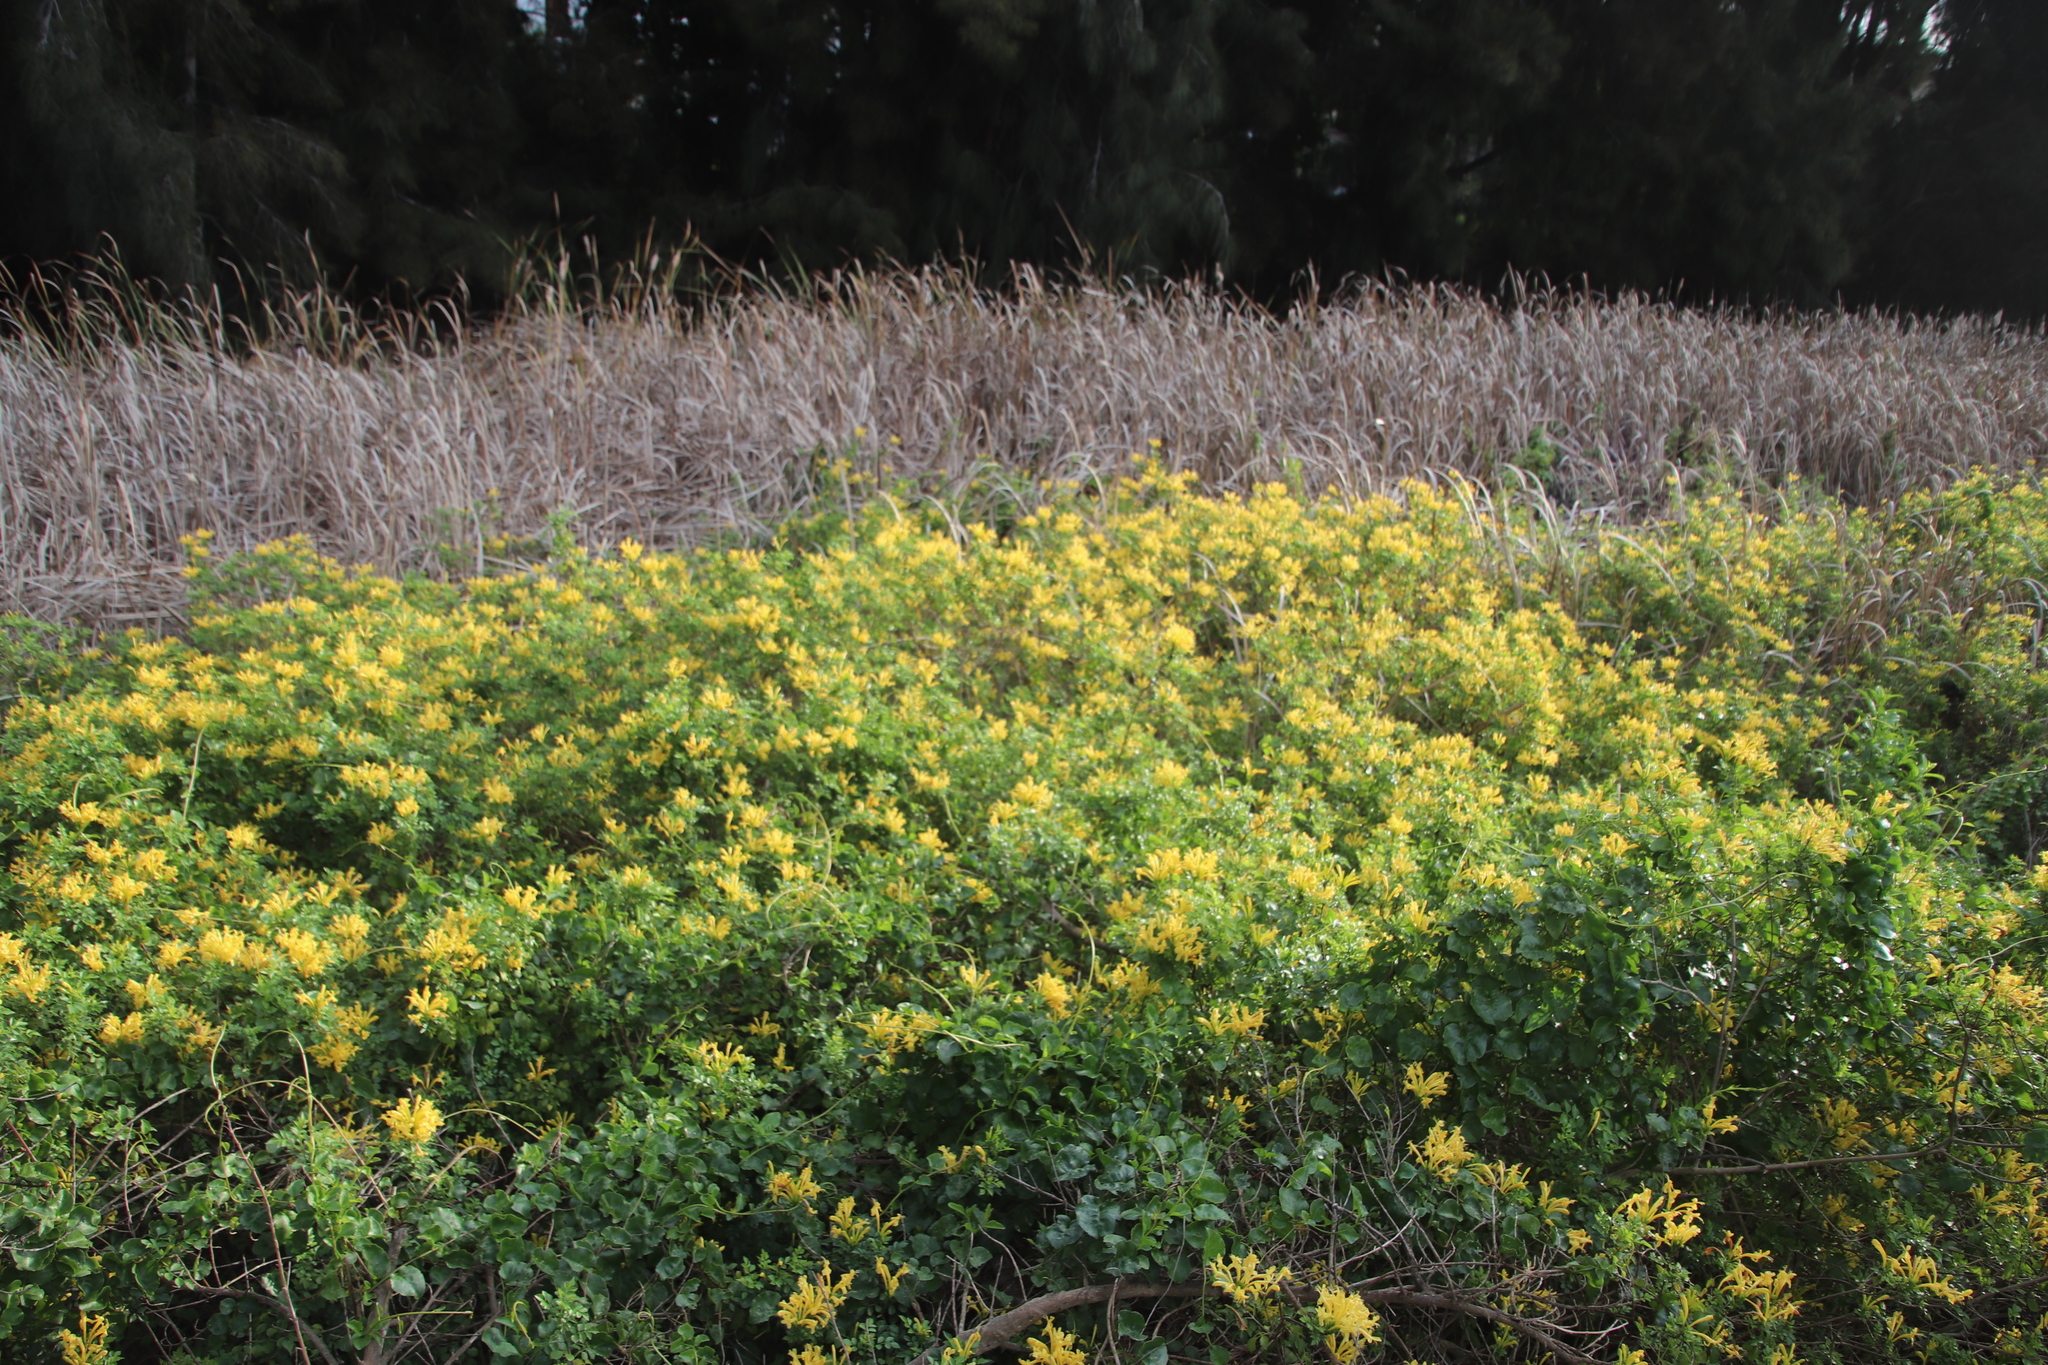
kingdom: Plantae
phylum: Tracheophyta
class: Magnoliopsida
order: Lamiales
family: Bignoniaceae
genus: Tecomaria
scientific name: Tecomaria capensis
